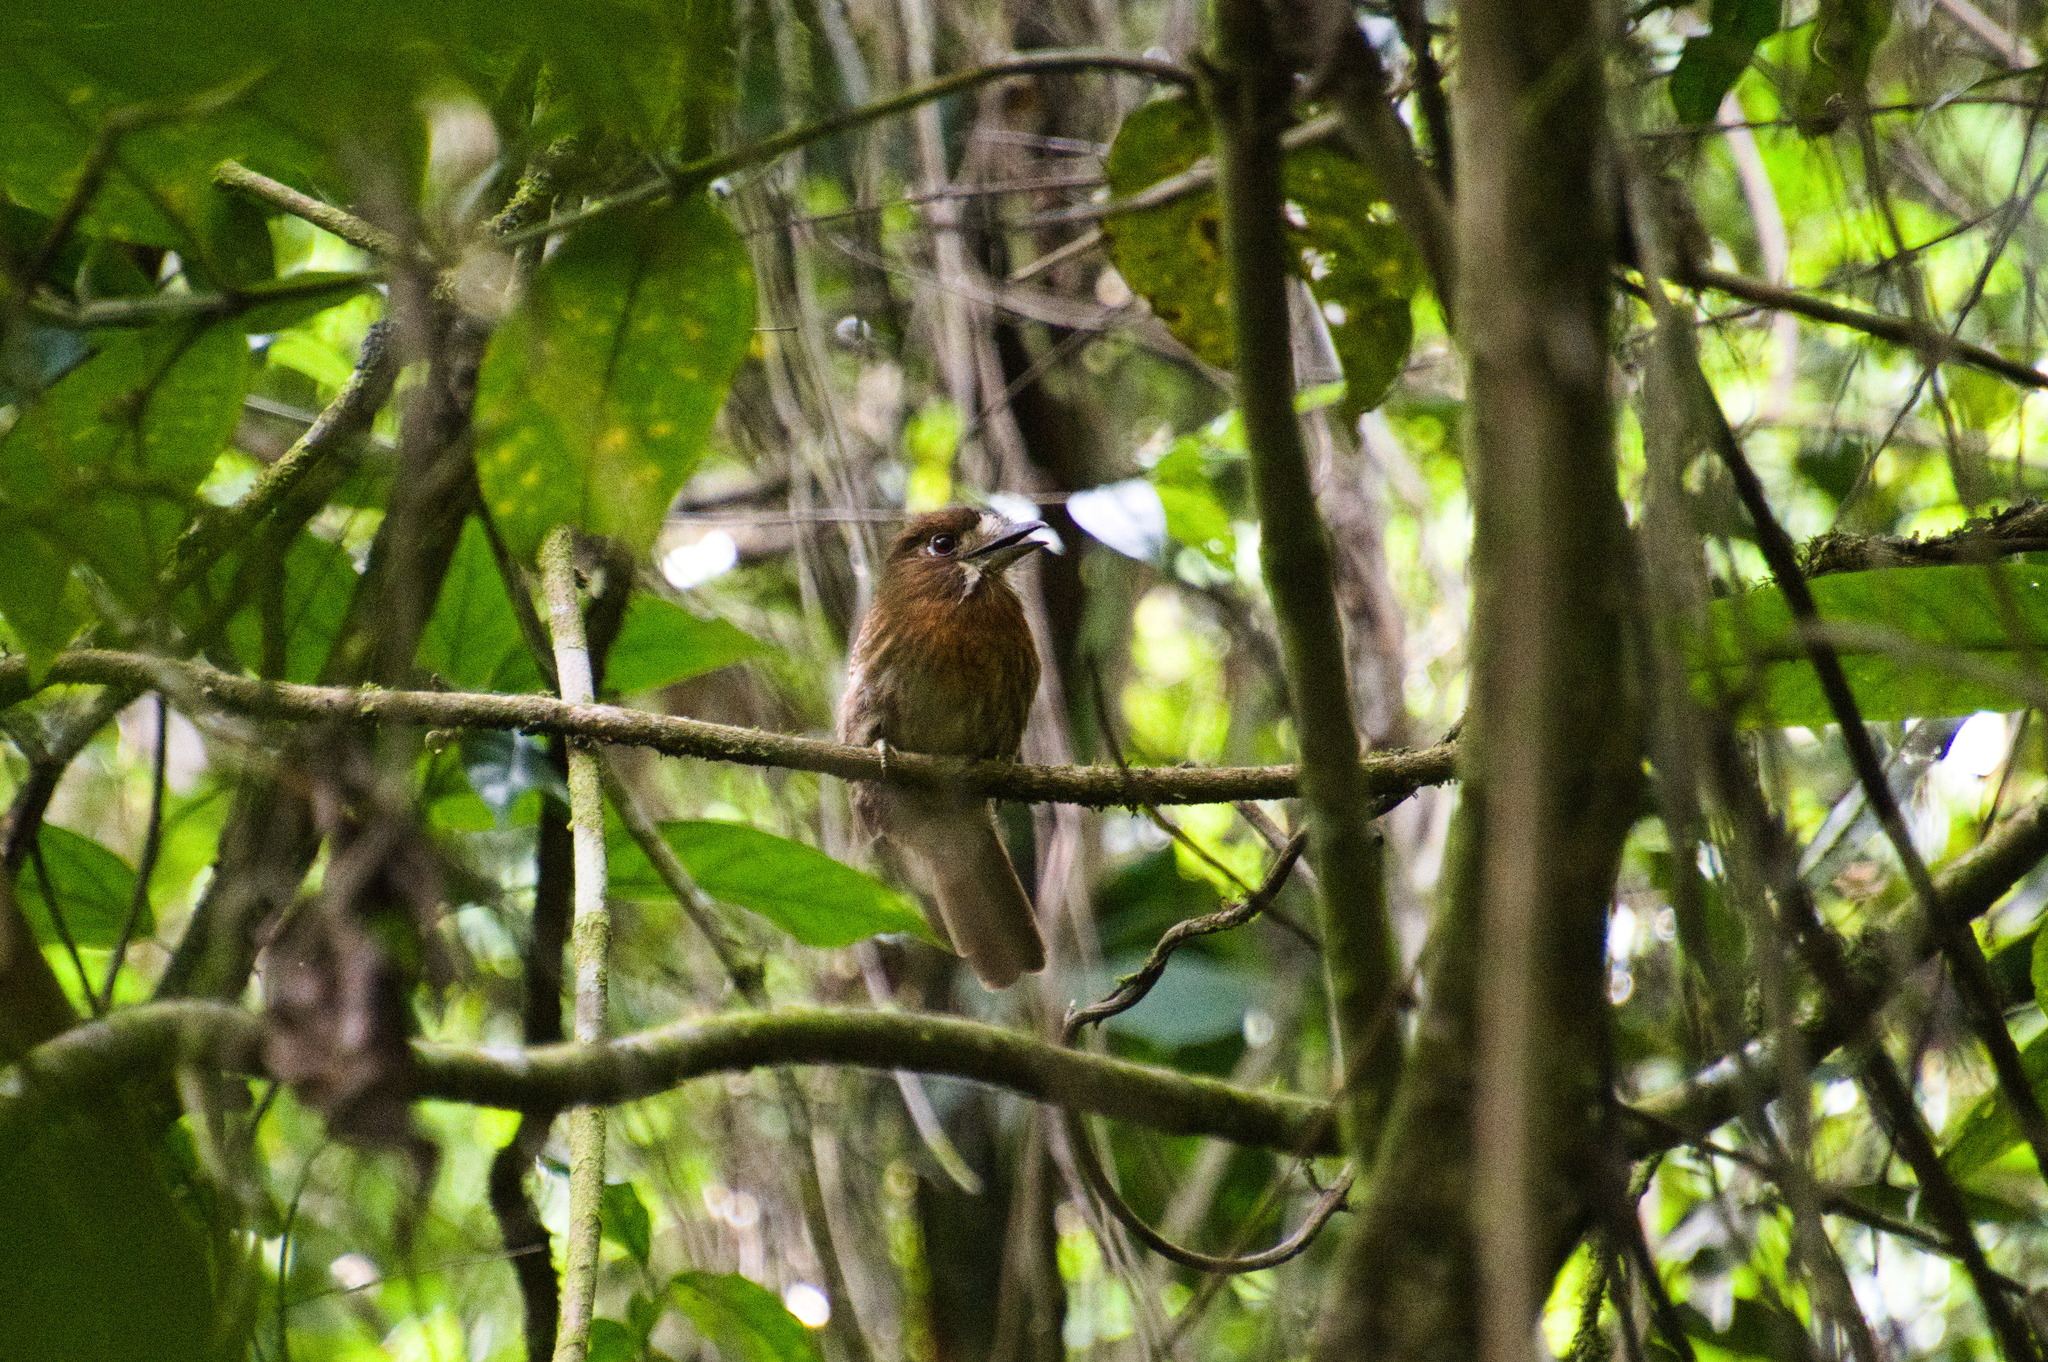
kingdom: Animalia
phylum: Chordata
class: Aves
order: Piciformes
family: Bucconidae
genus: Malacoptila
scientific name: Malacoptila mystacalis
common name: Moustached puffbird
